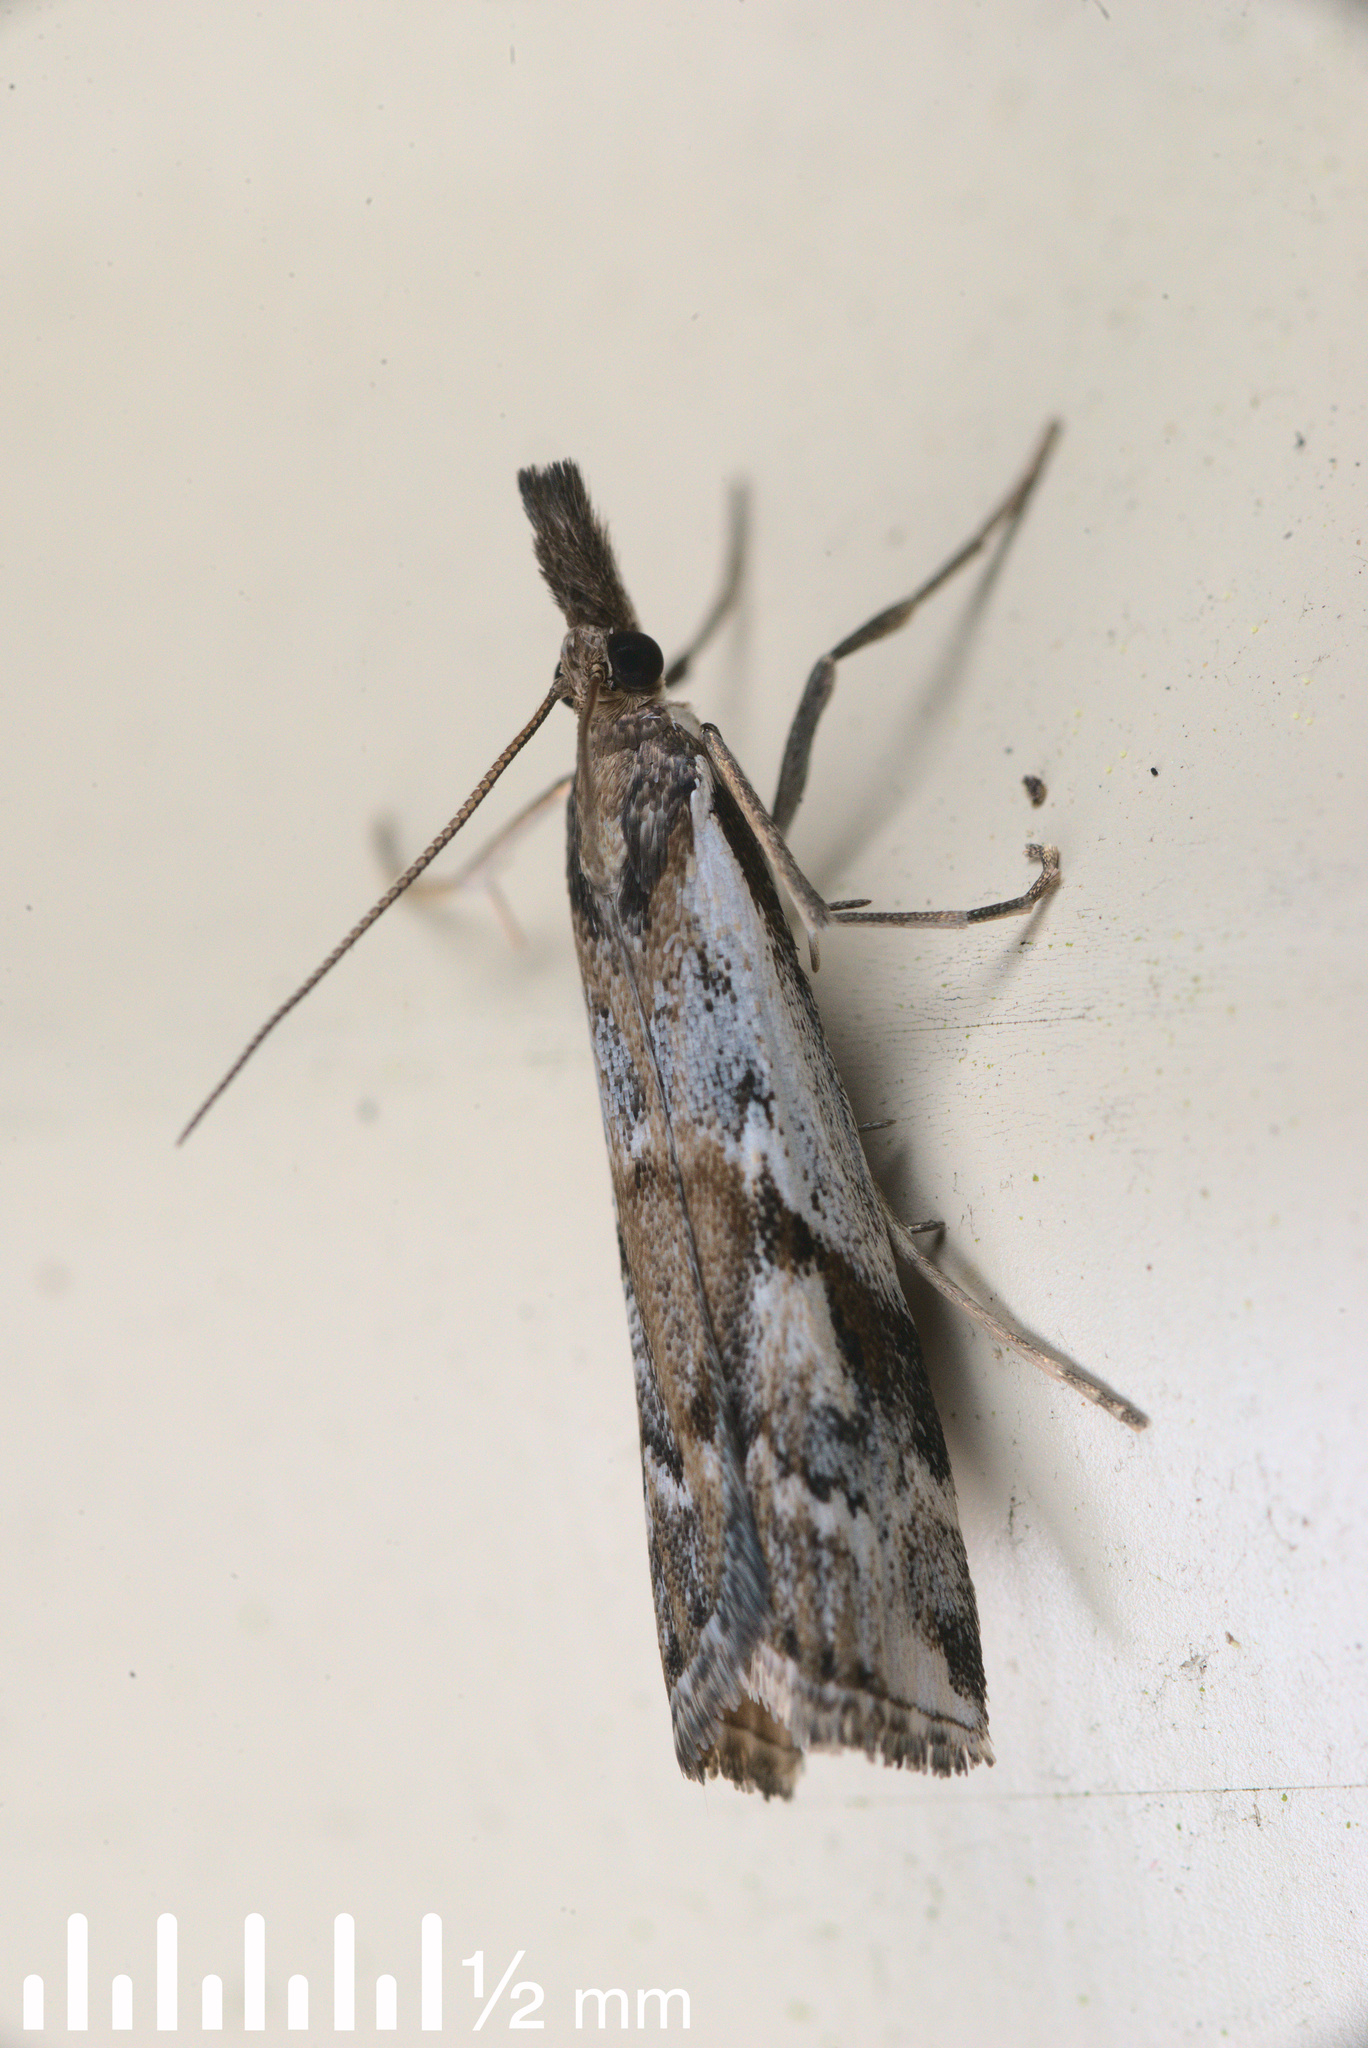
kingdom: Animalia
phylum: Arthropoda
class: Insecta
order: Lepidoptera
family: Crambidae
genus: Orocrambus
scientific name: Orocrambus vulgaris
